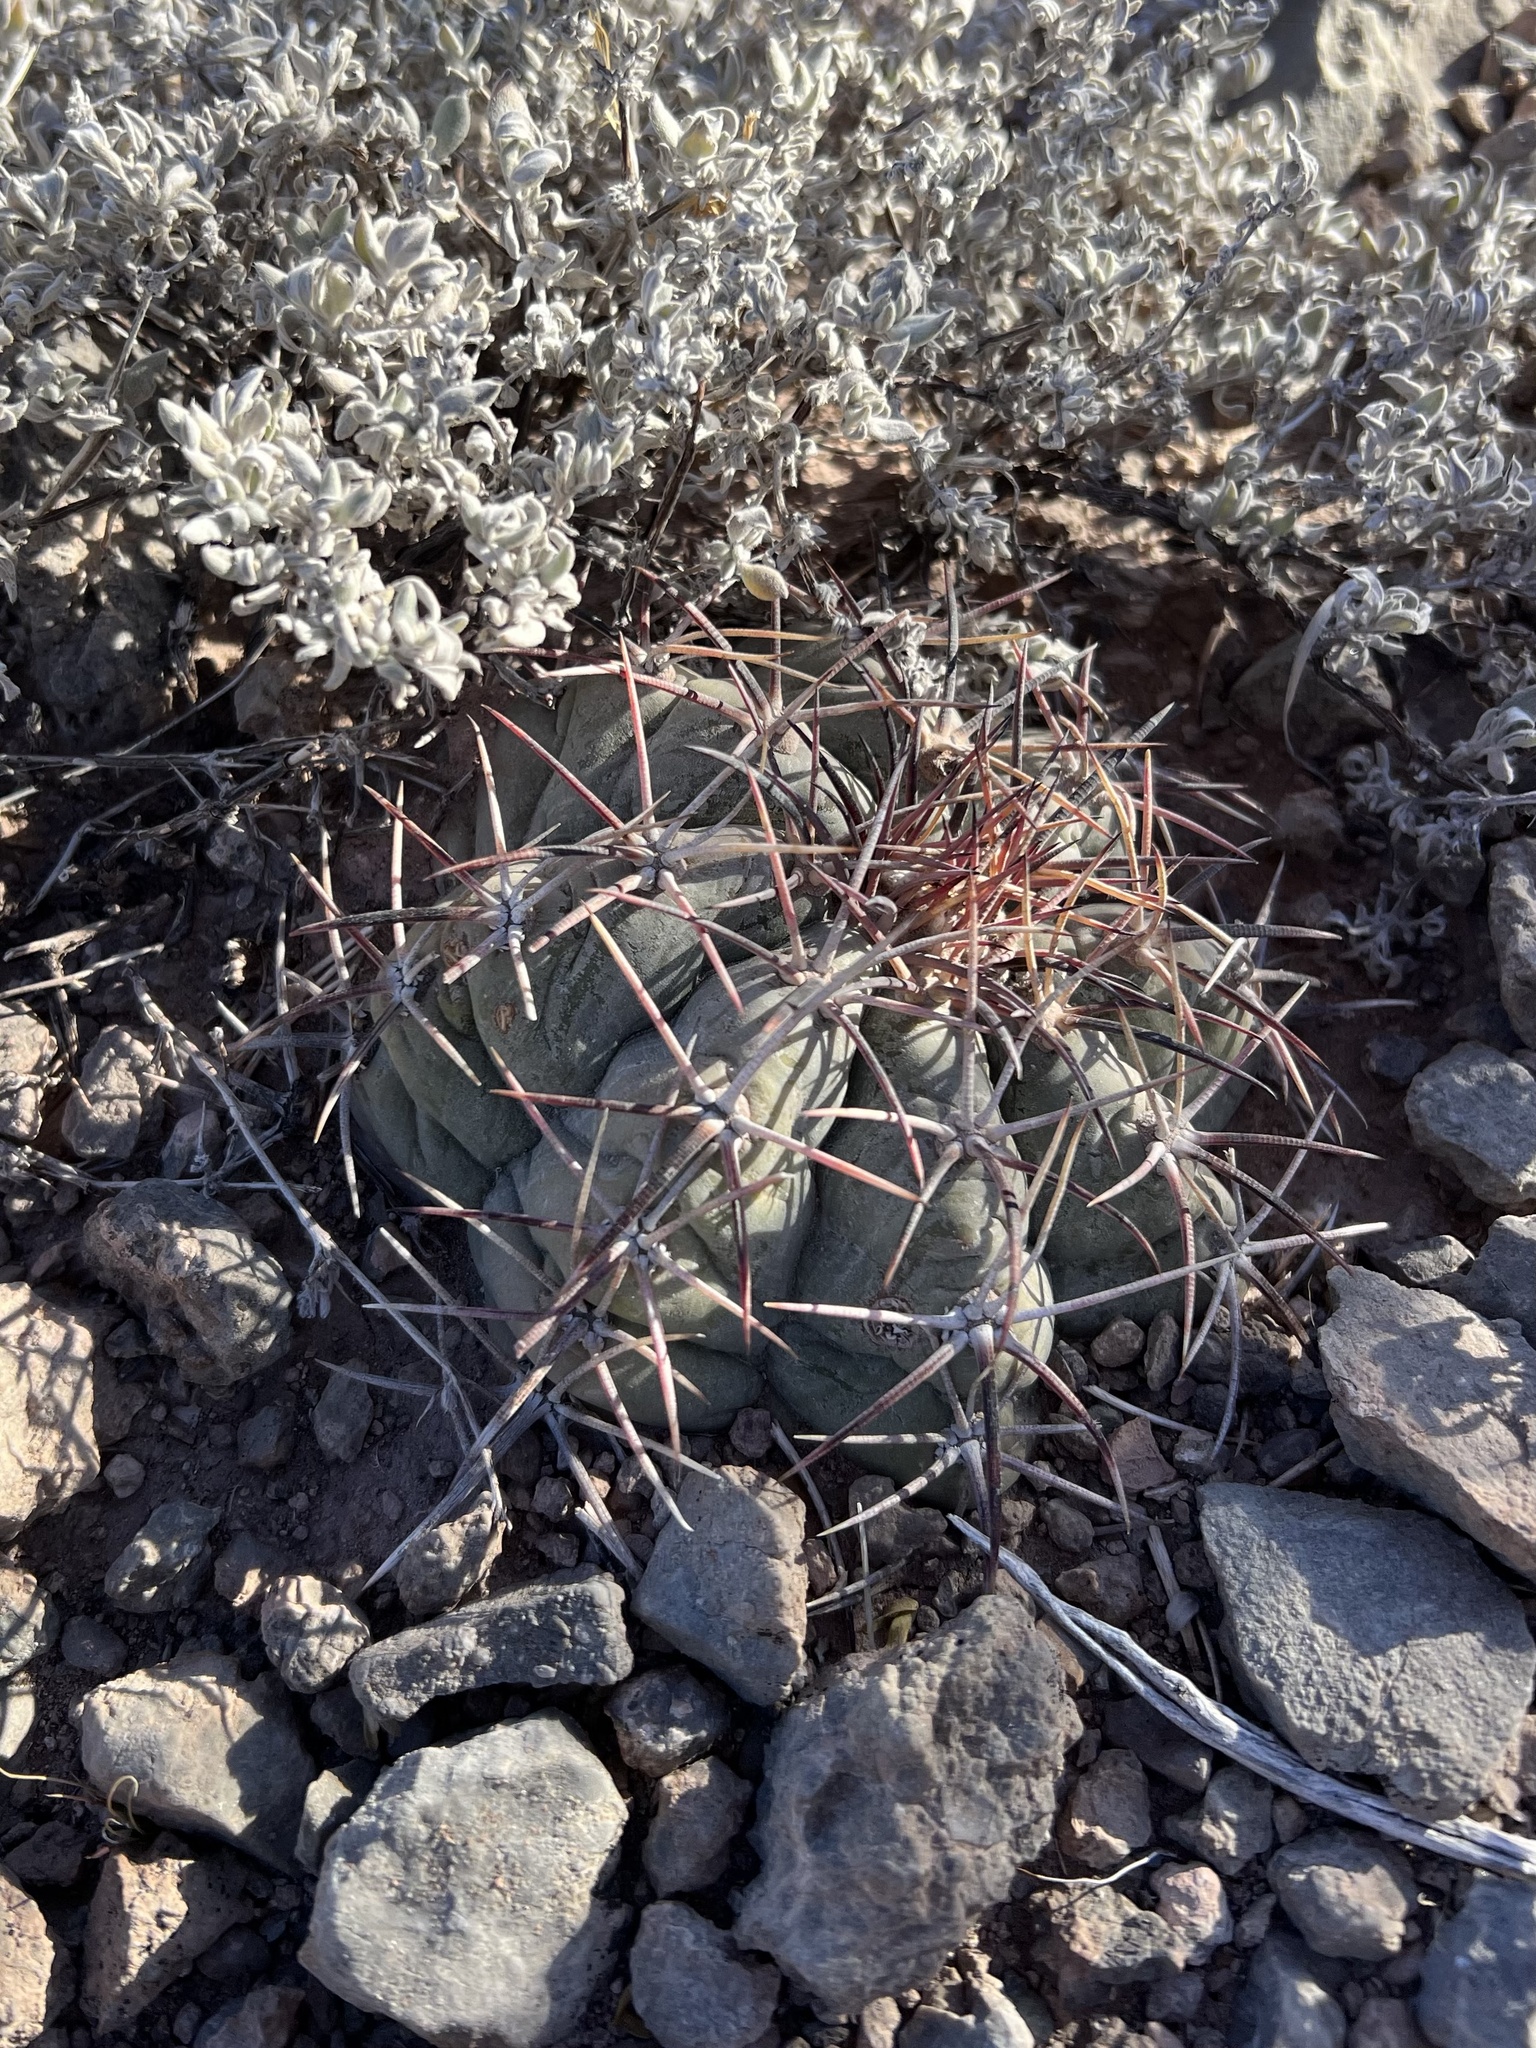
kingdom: Plantae
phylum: Tracheophyta
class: Magnoliopsida
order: Caryophyllales
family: Cactaceae
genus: Echinocactus
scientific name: Echinocactus horizonthalonius
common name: Devilshead
